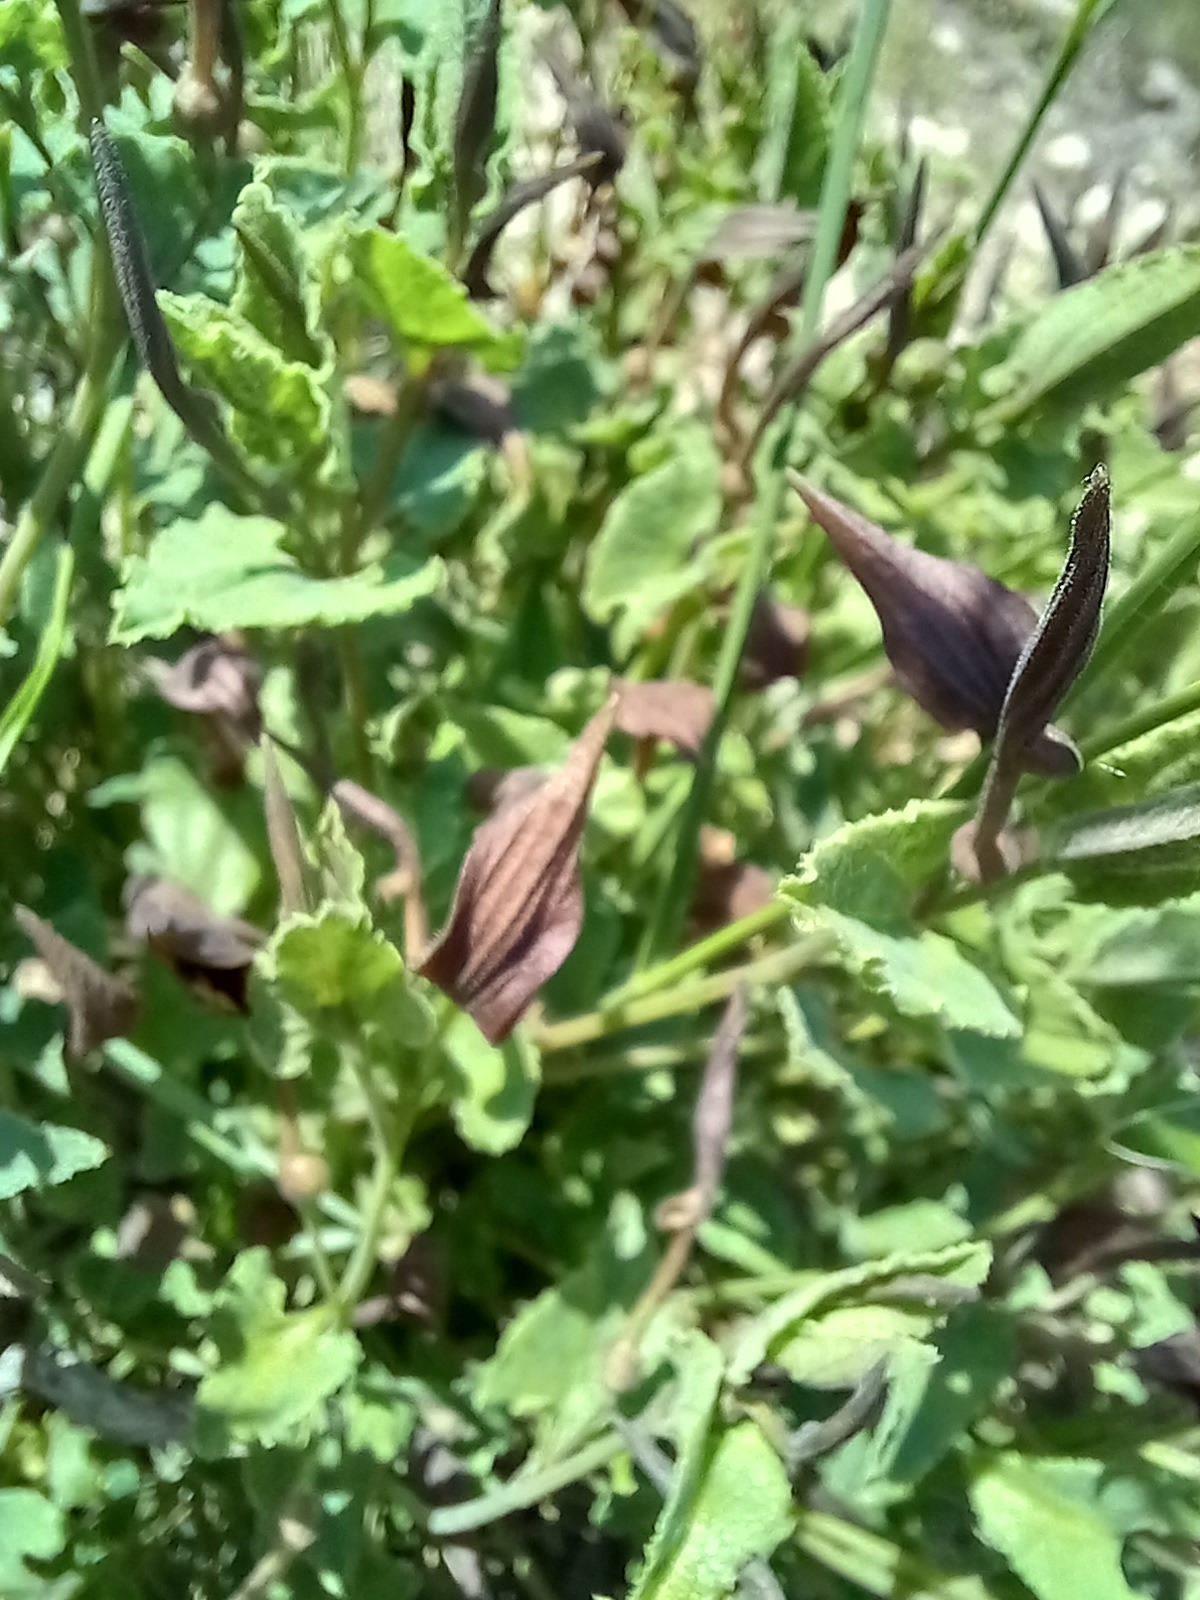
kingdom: Plantae
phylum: Tracheophyta
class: Magnoliopsida
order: Piperales
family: Aristolochiaceae
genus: Aristolochia
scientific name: Aristolochia pistolochia
